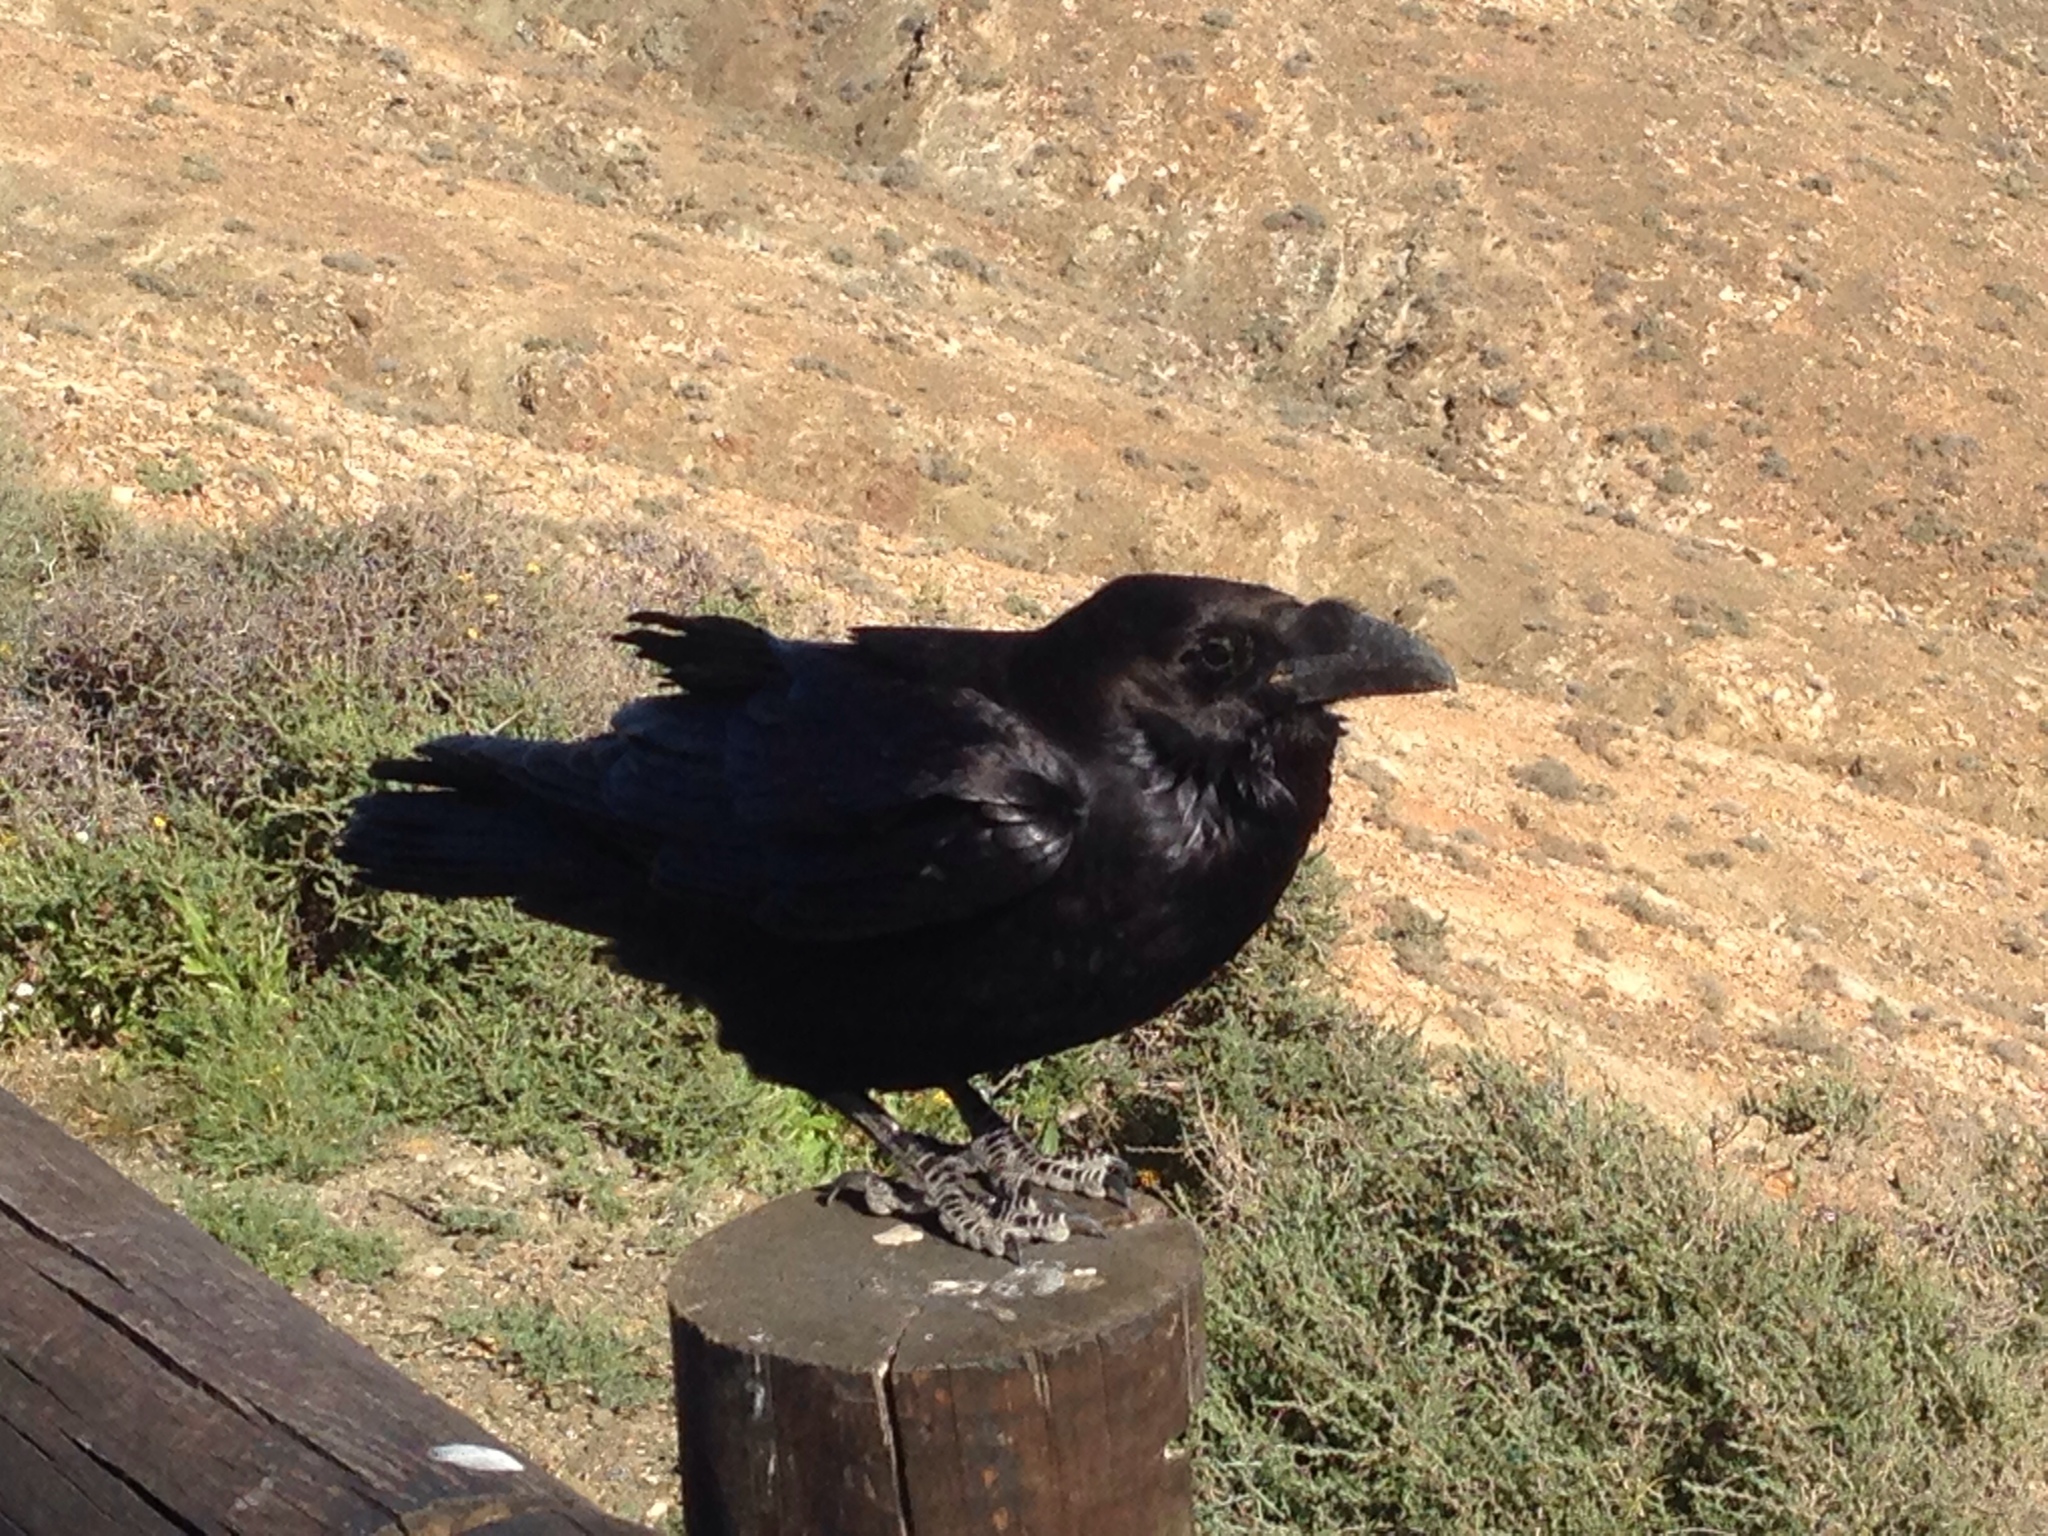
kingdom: Animalia
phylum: Chordata
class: Aves
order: Passeriformes
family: Corvidae
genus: Corvus
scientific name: Corvus corax
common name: Common raven
